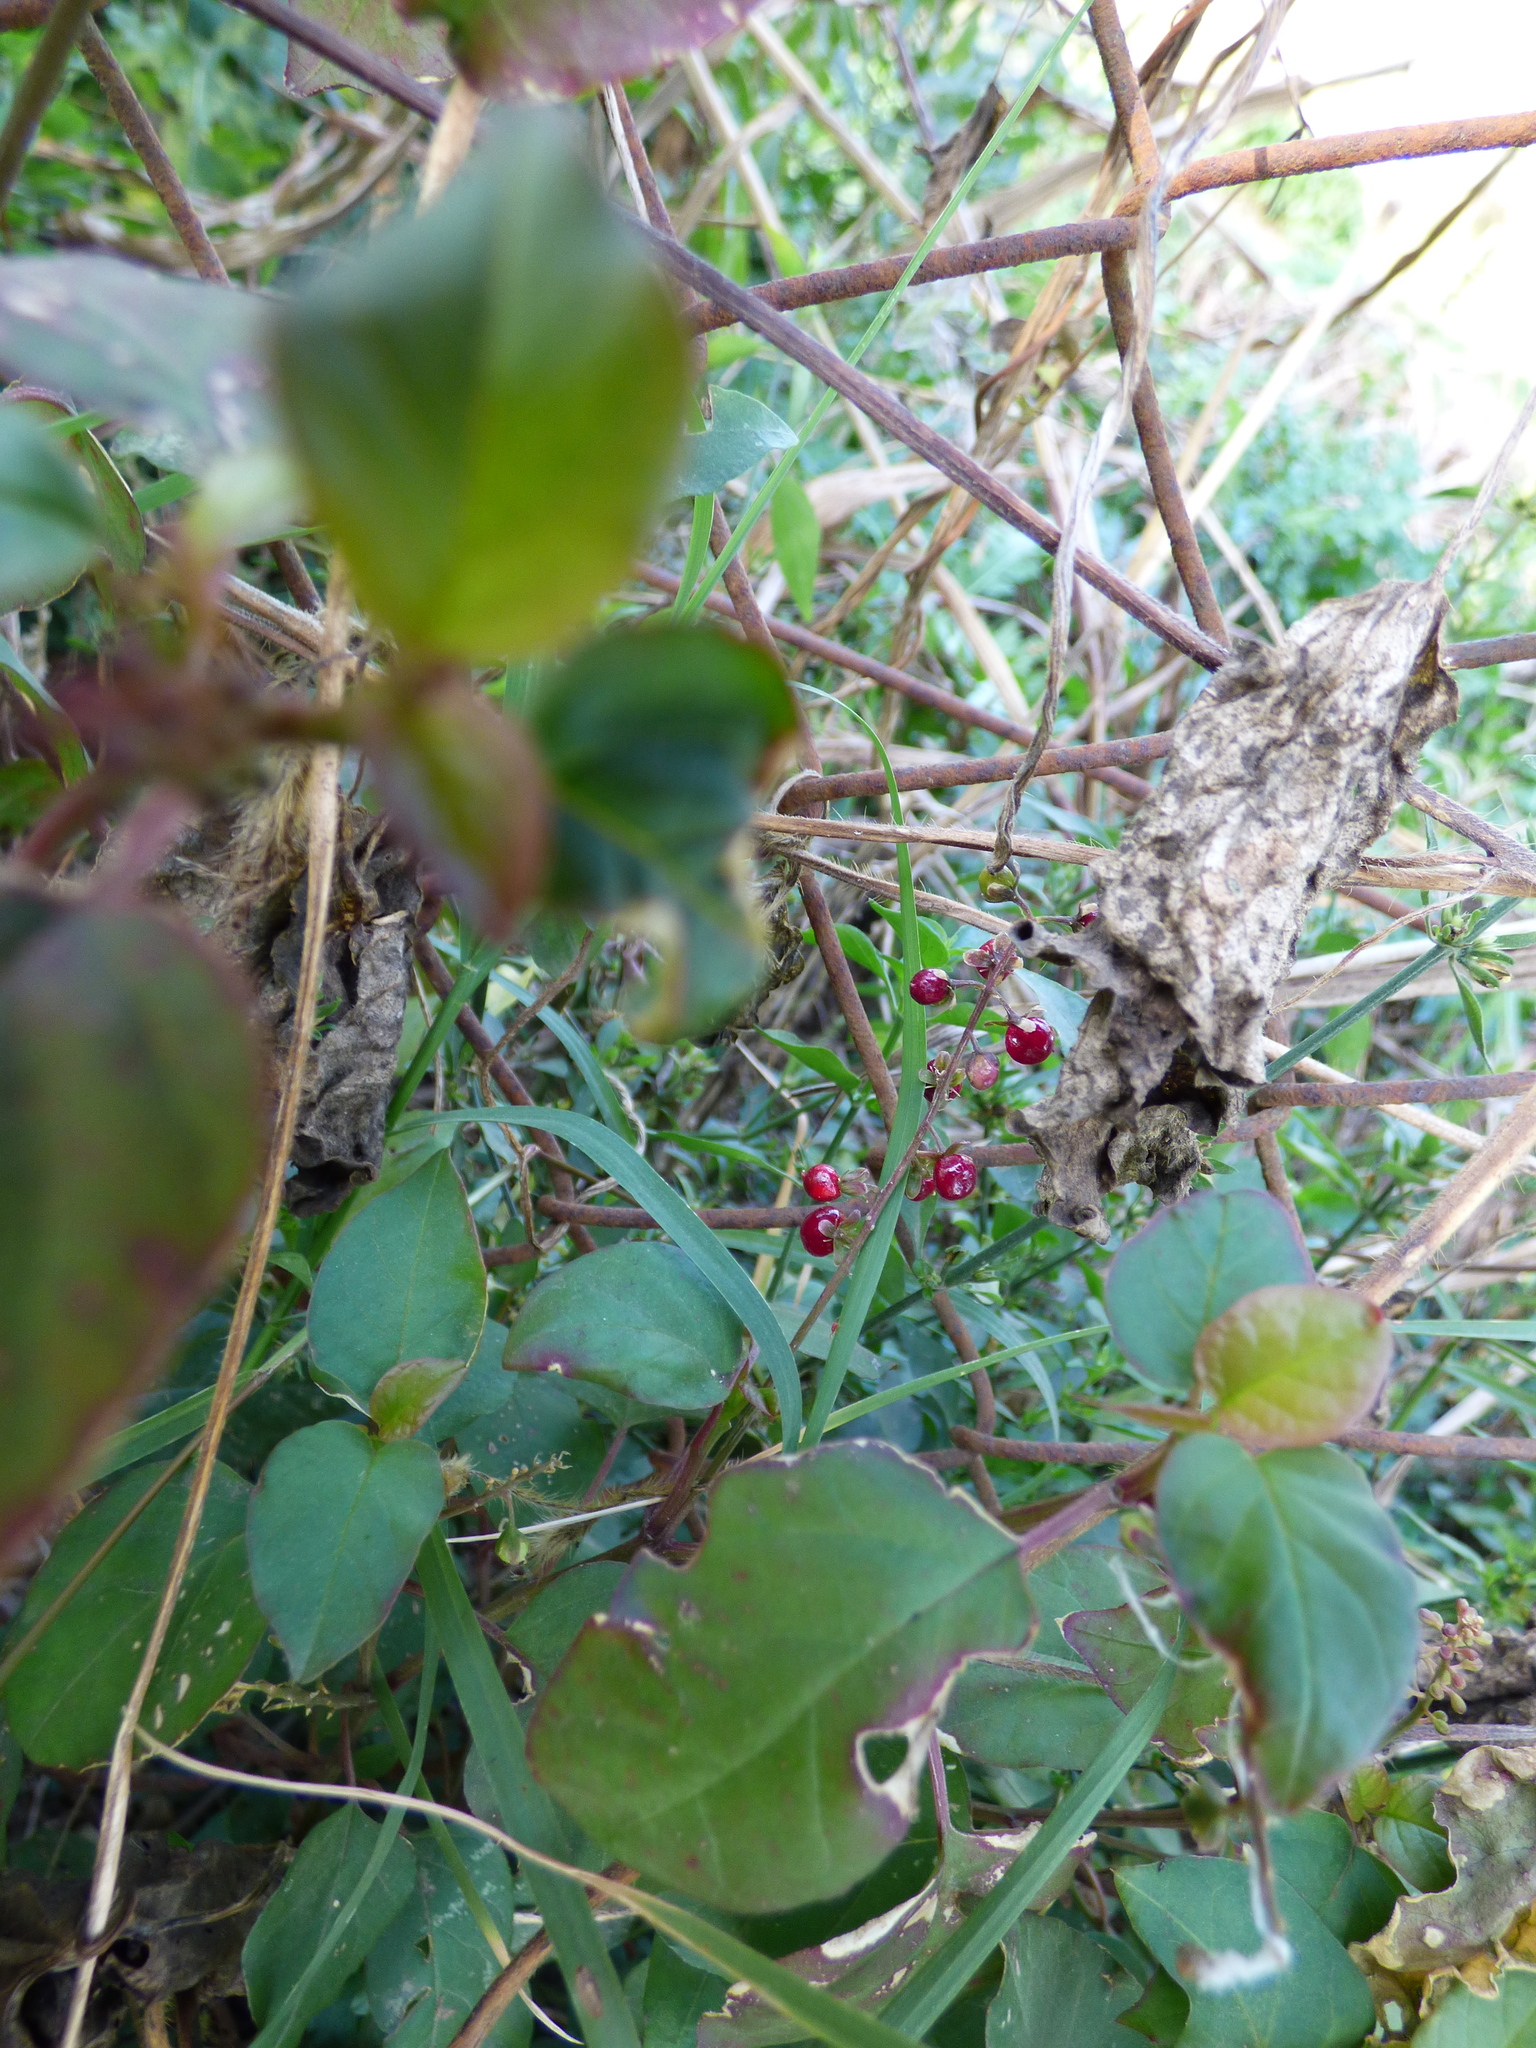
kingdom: Plantae
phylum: Tracheophyta
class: Magnoliopsida
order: Caryophyllales
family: Phytolaccaceae
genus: Rivina
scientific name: Rivina humilis
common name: Rougeplant
